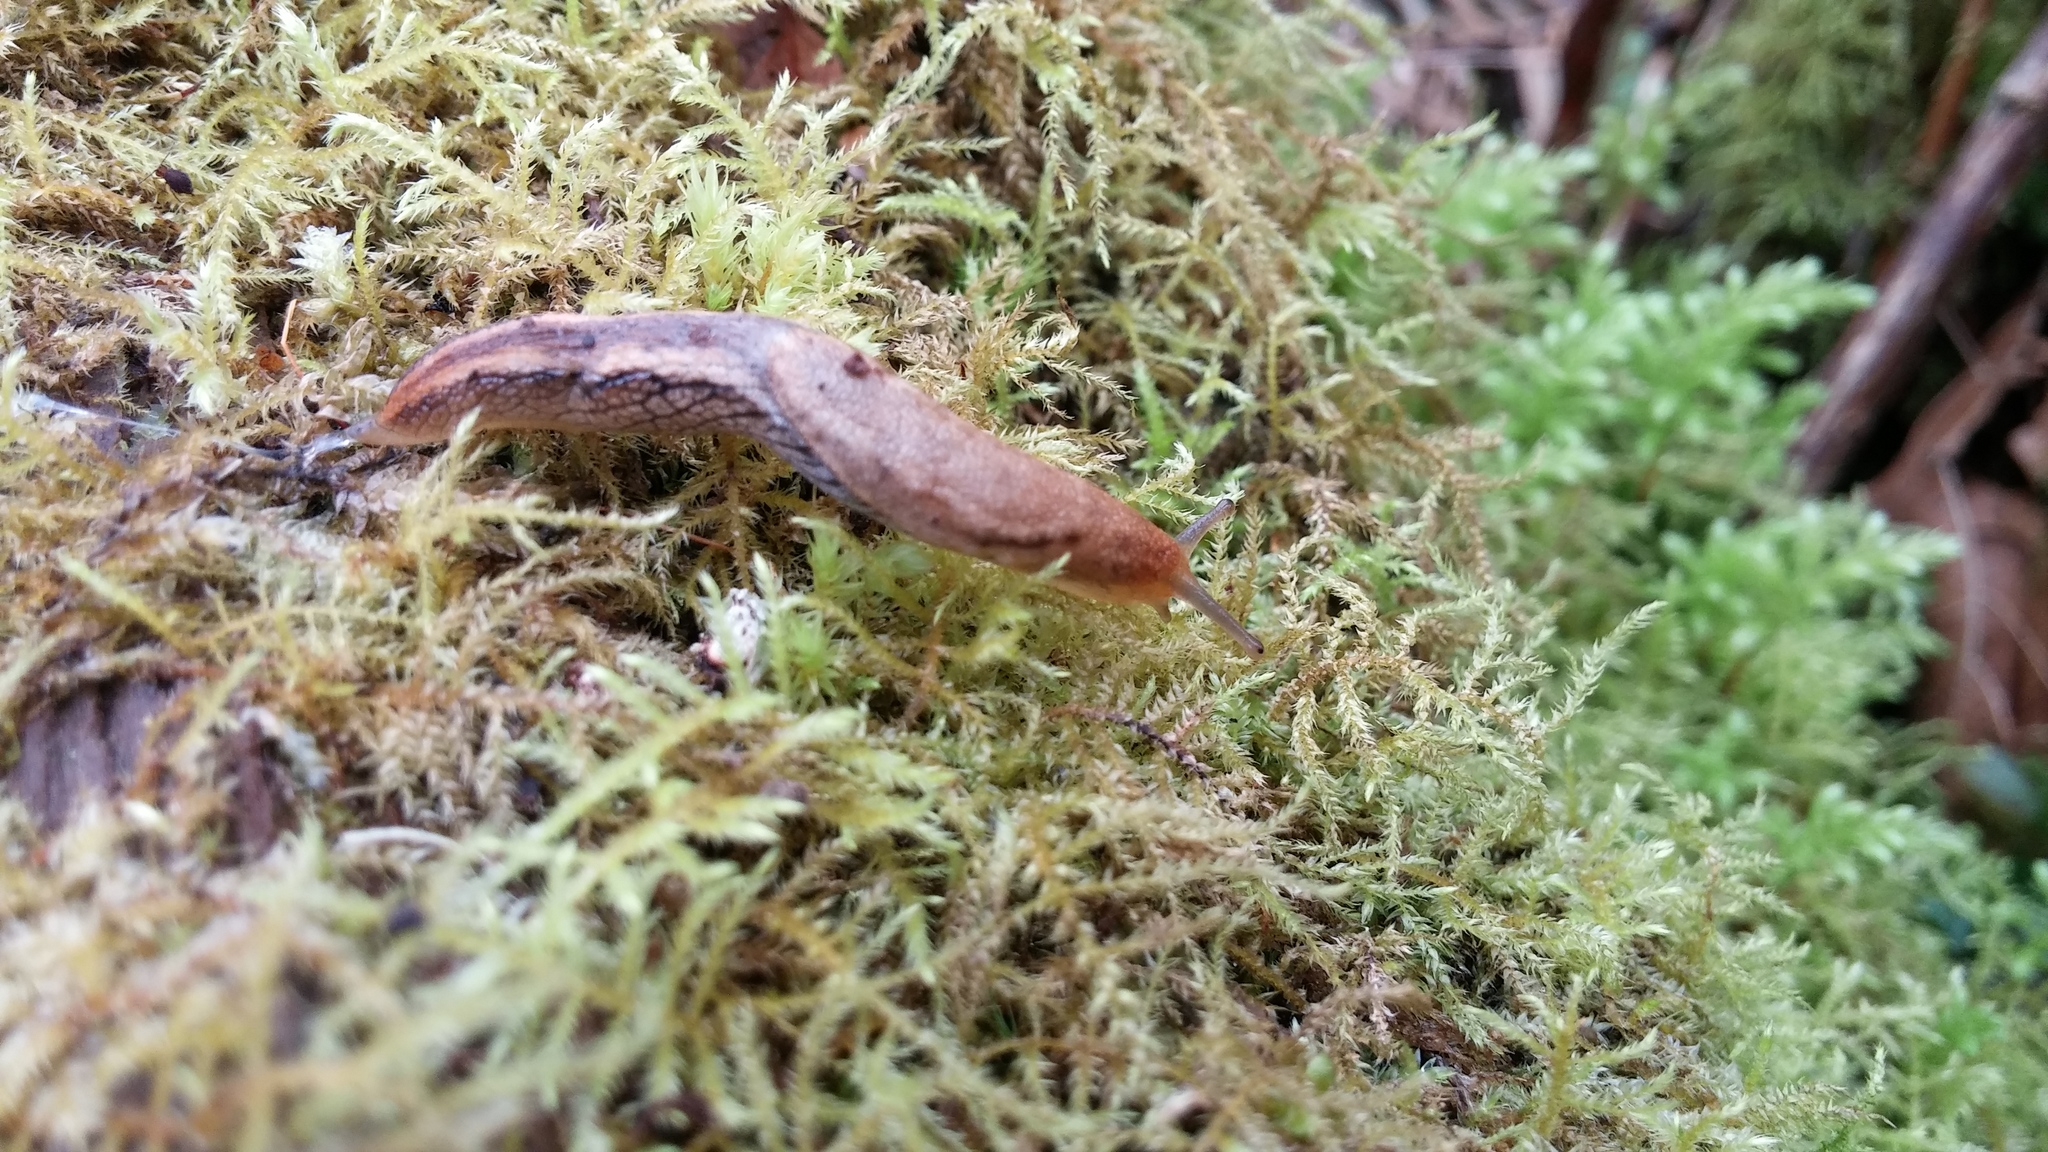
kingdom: Animalia
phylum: Mollusca
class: Gastropoda
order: Stylommatophora
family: Ariolimacidae
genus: Prophysaon
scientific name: Prophysaon vanattae
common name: Scarletback taildropper
